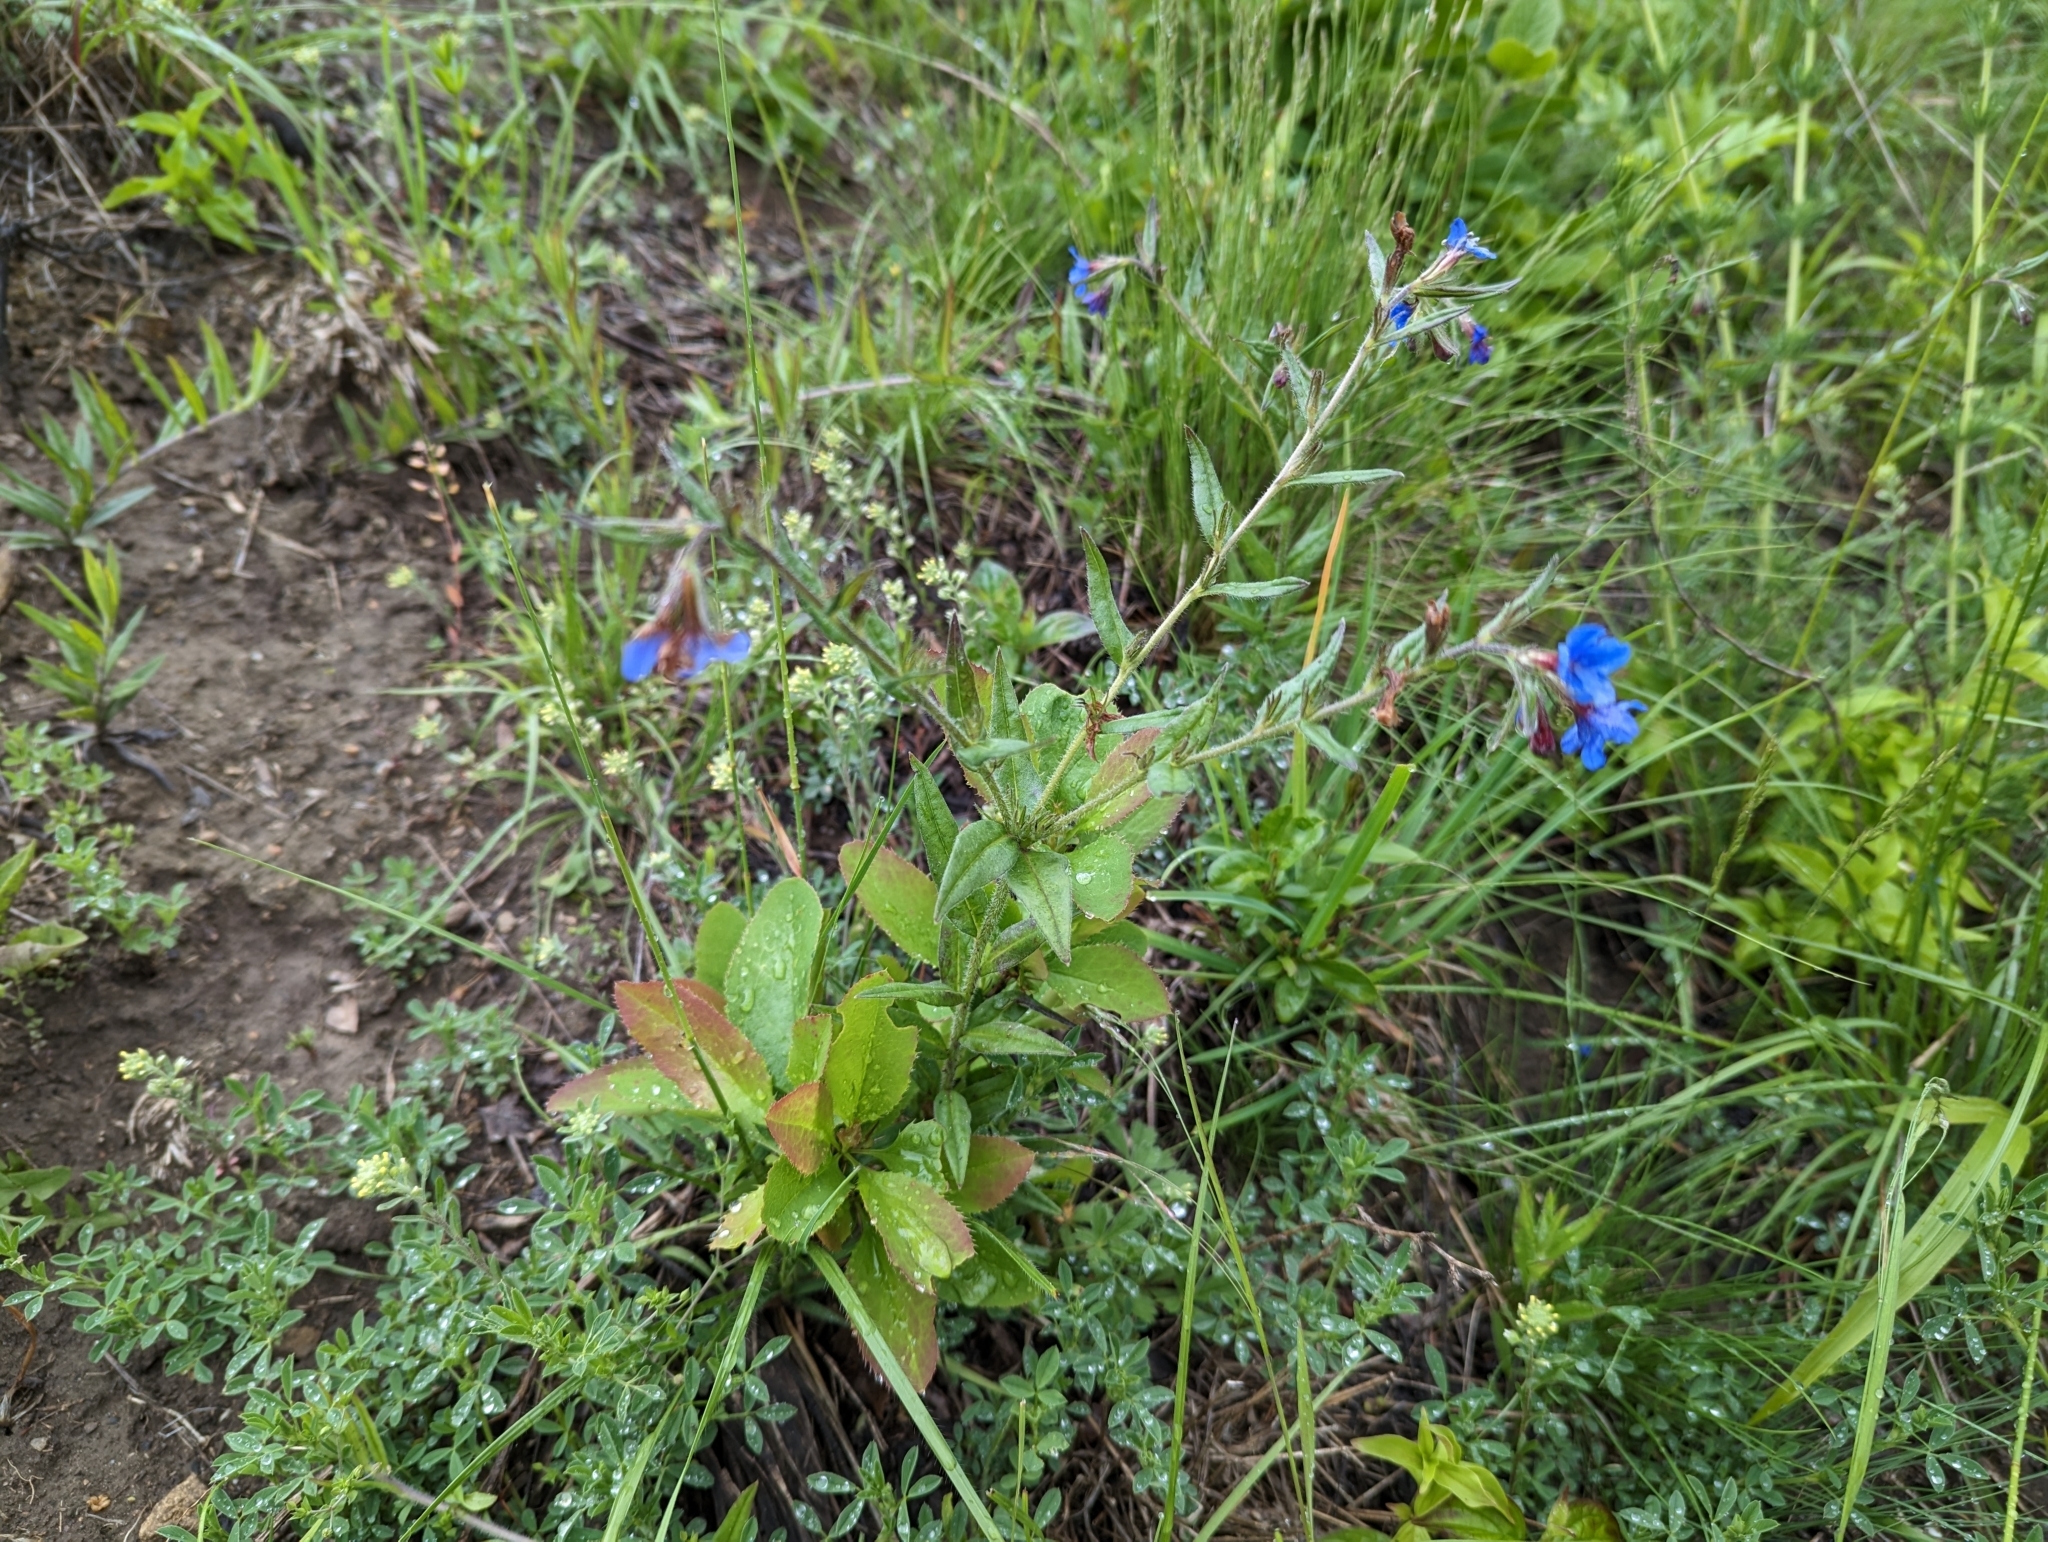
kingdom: Plantae
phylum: Tracheophyta
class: Magnoliopsida
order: Boraginales
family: Boraginaceae
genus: Aegonychon
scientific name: Aegonychon purpurocaeruleum
